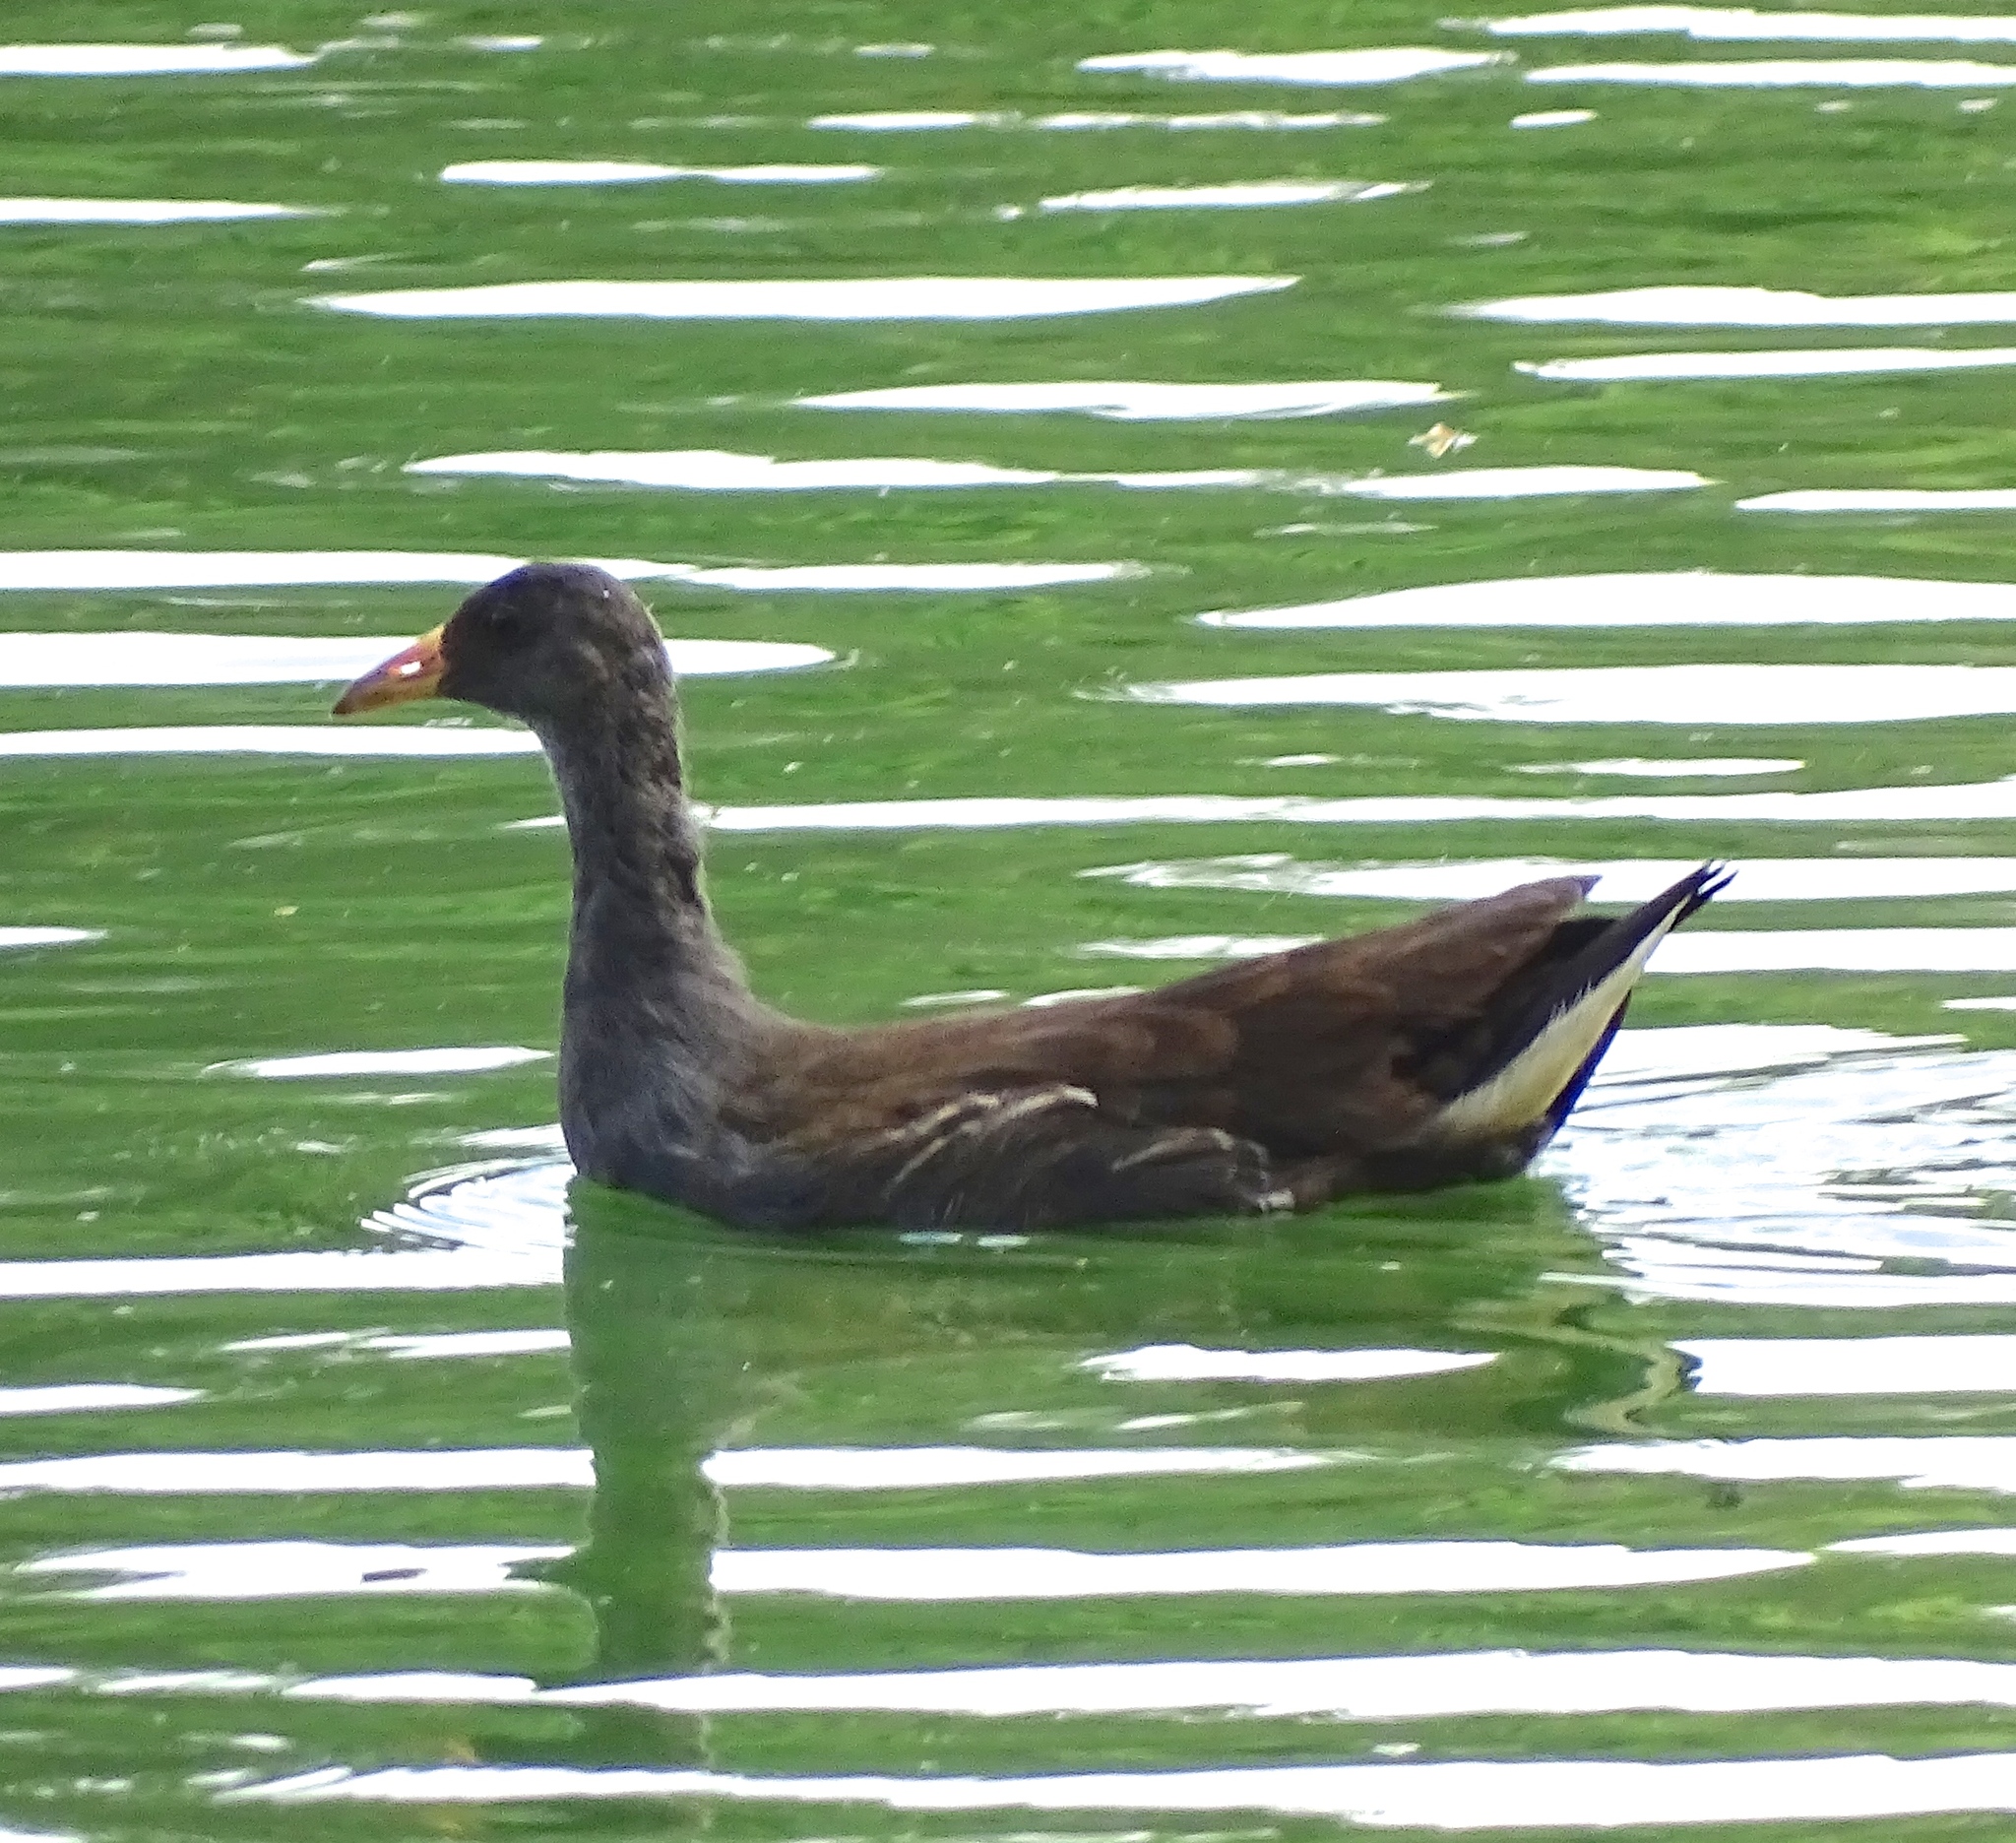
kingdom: Animalia
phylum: Chordata
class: Aves
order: Gruiformes
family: Rallidae
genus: Gallinula
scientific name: Gallinula chloropus
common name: Common moorhen
